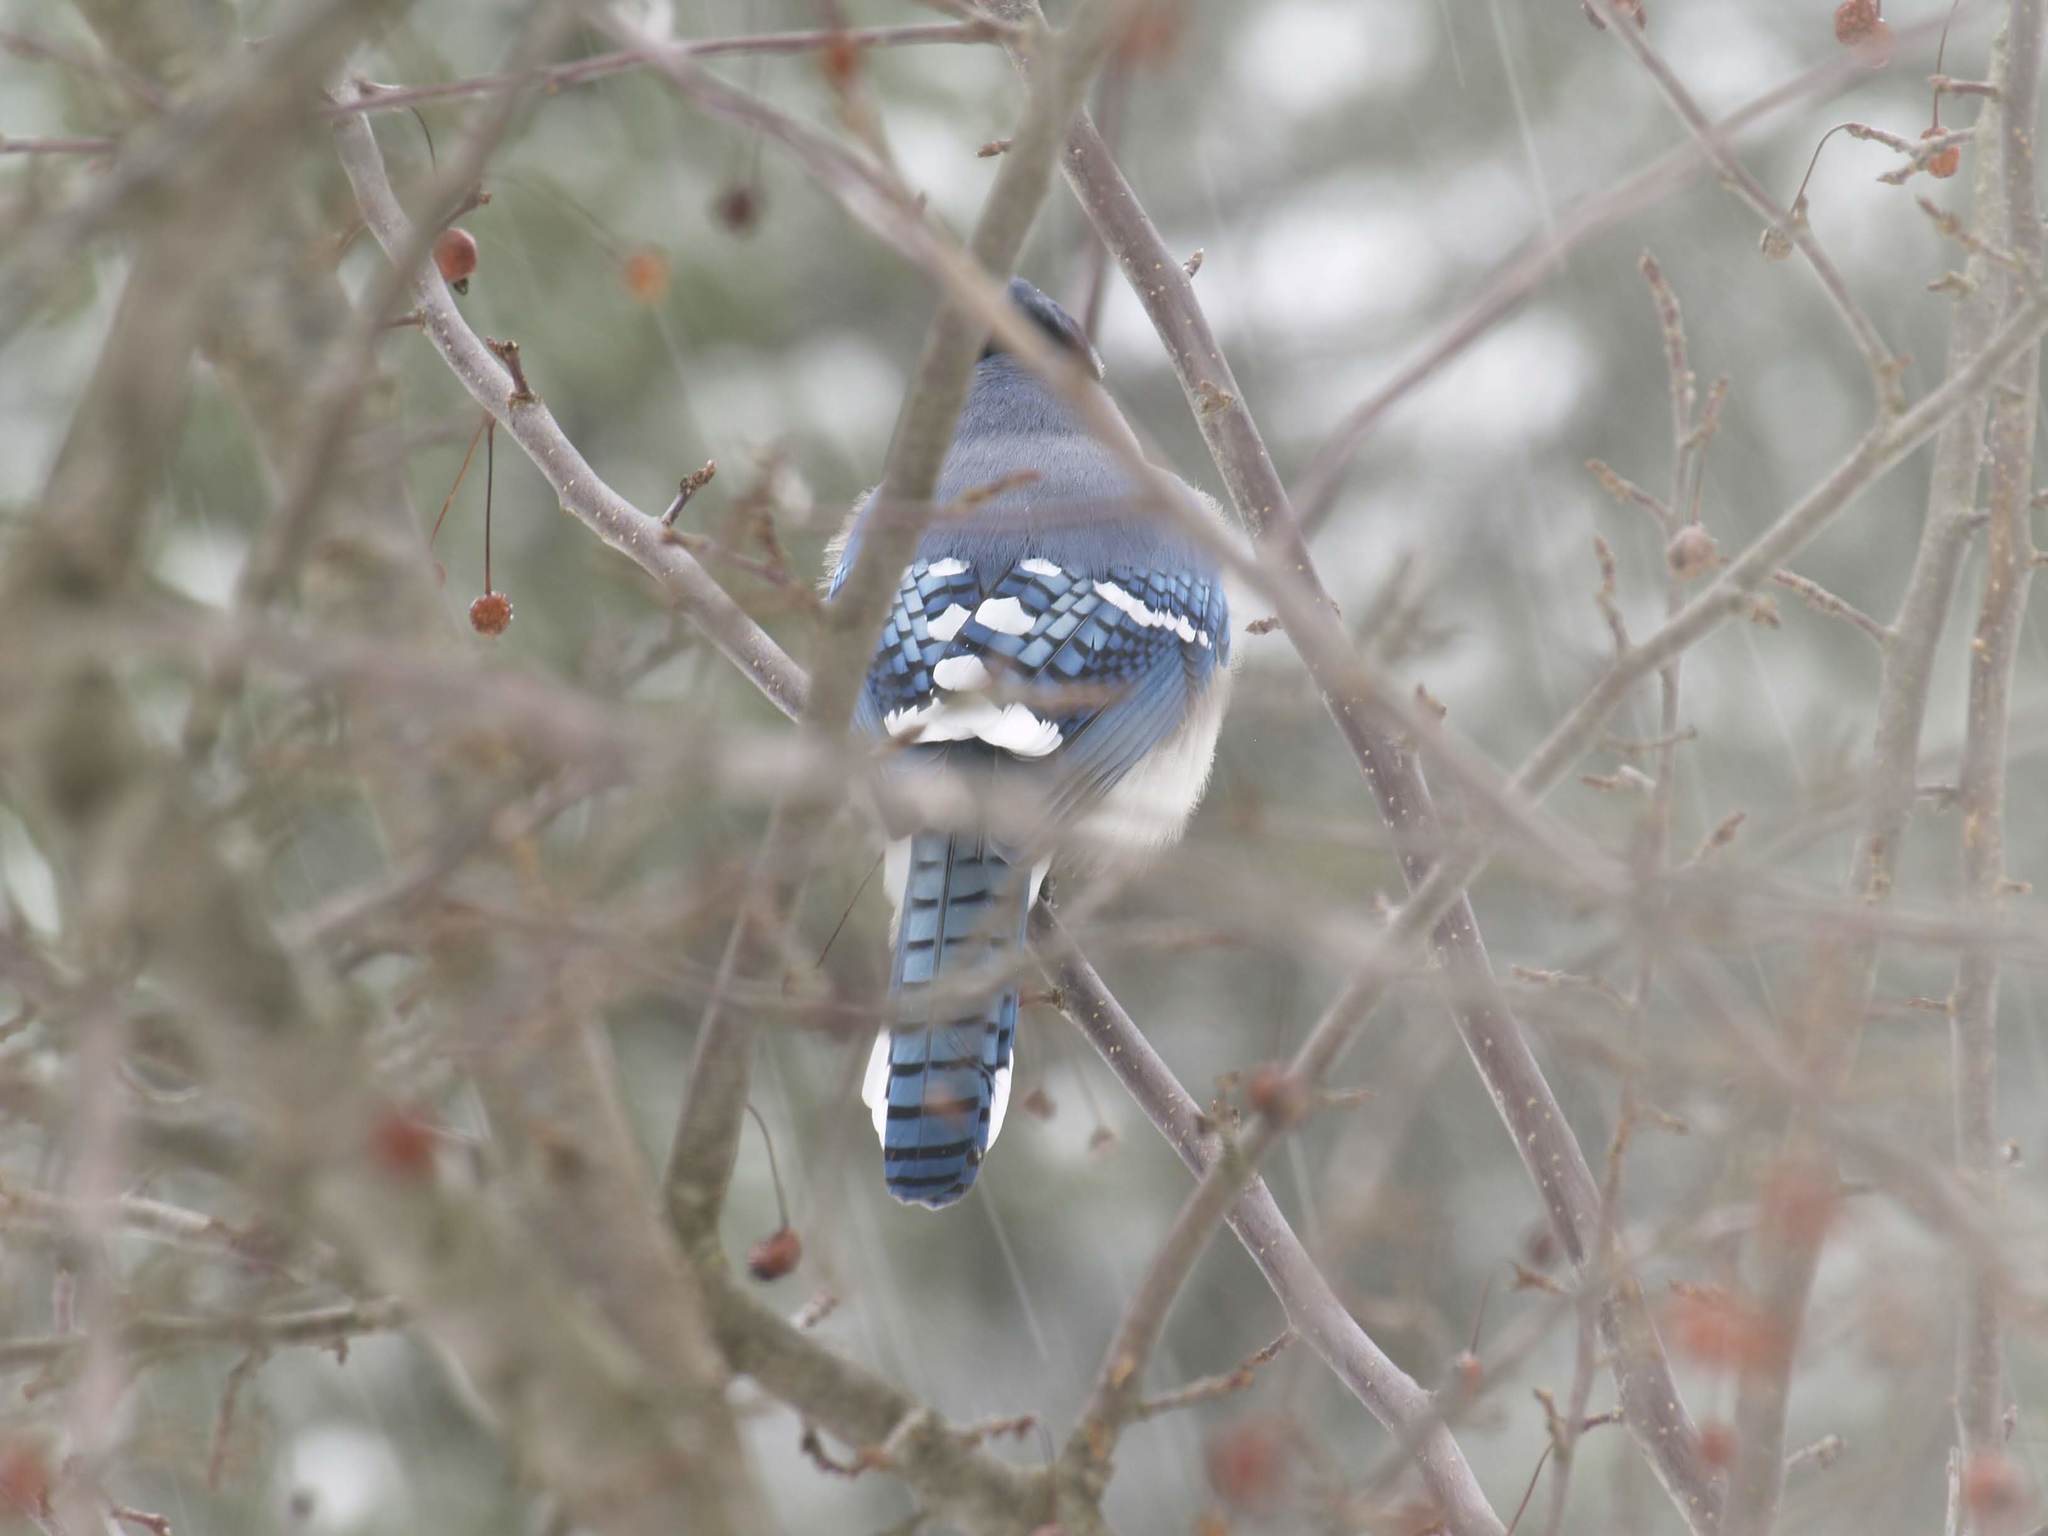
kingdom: Animalia
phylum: Chordata
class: Aves
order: Passeriformes
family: Corvidae
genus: Cyanocitta
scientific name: Cyanocitta cristata
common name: Blue jay
